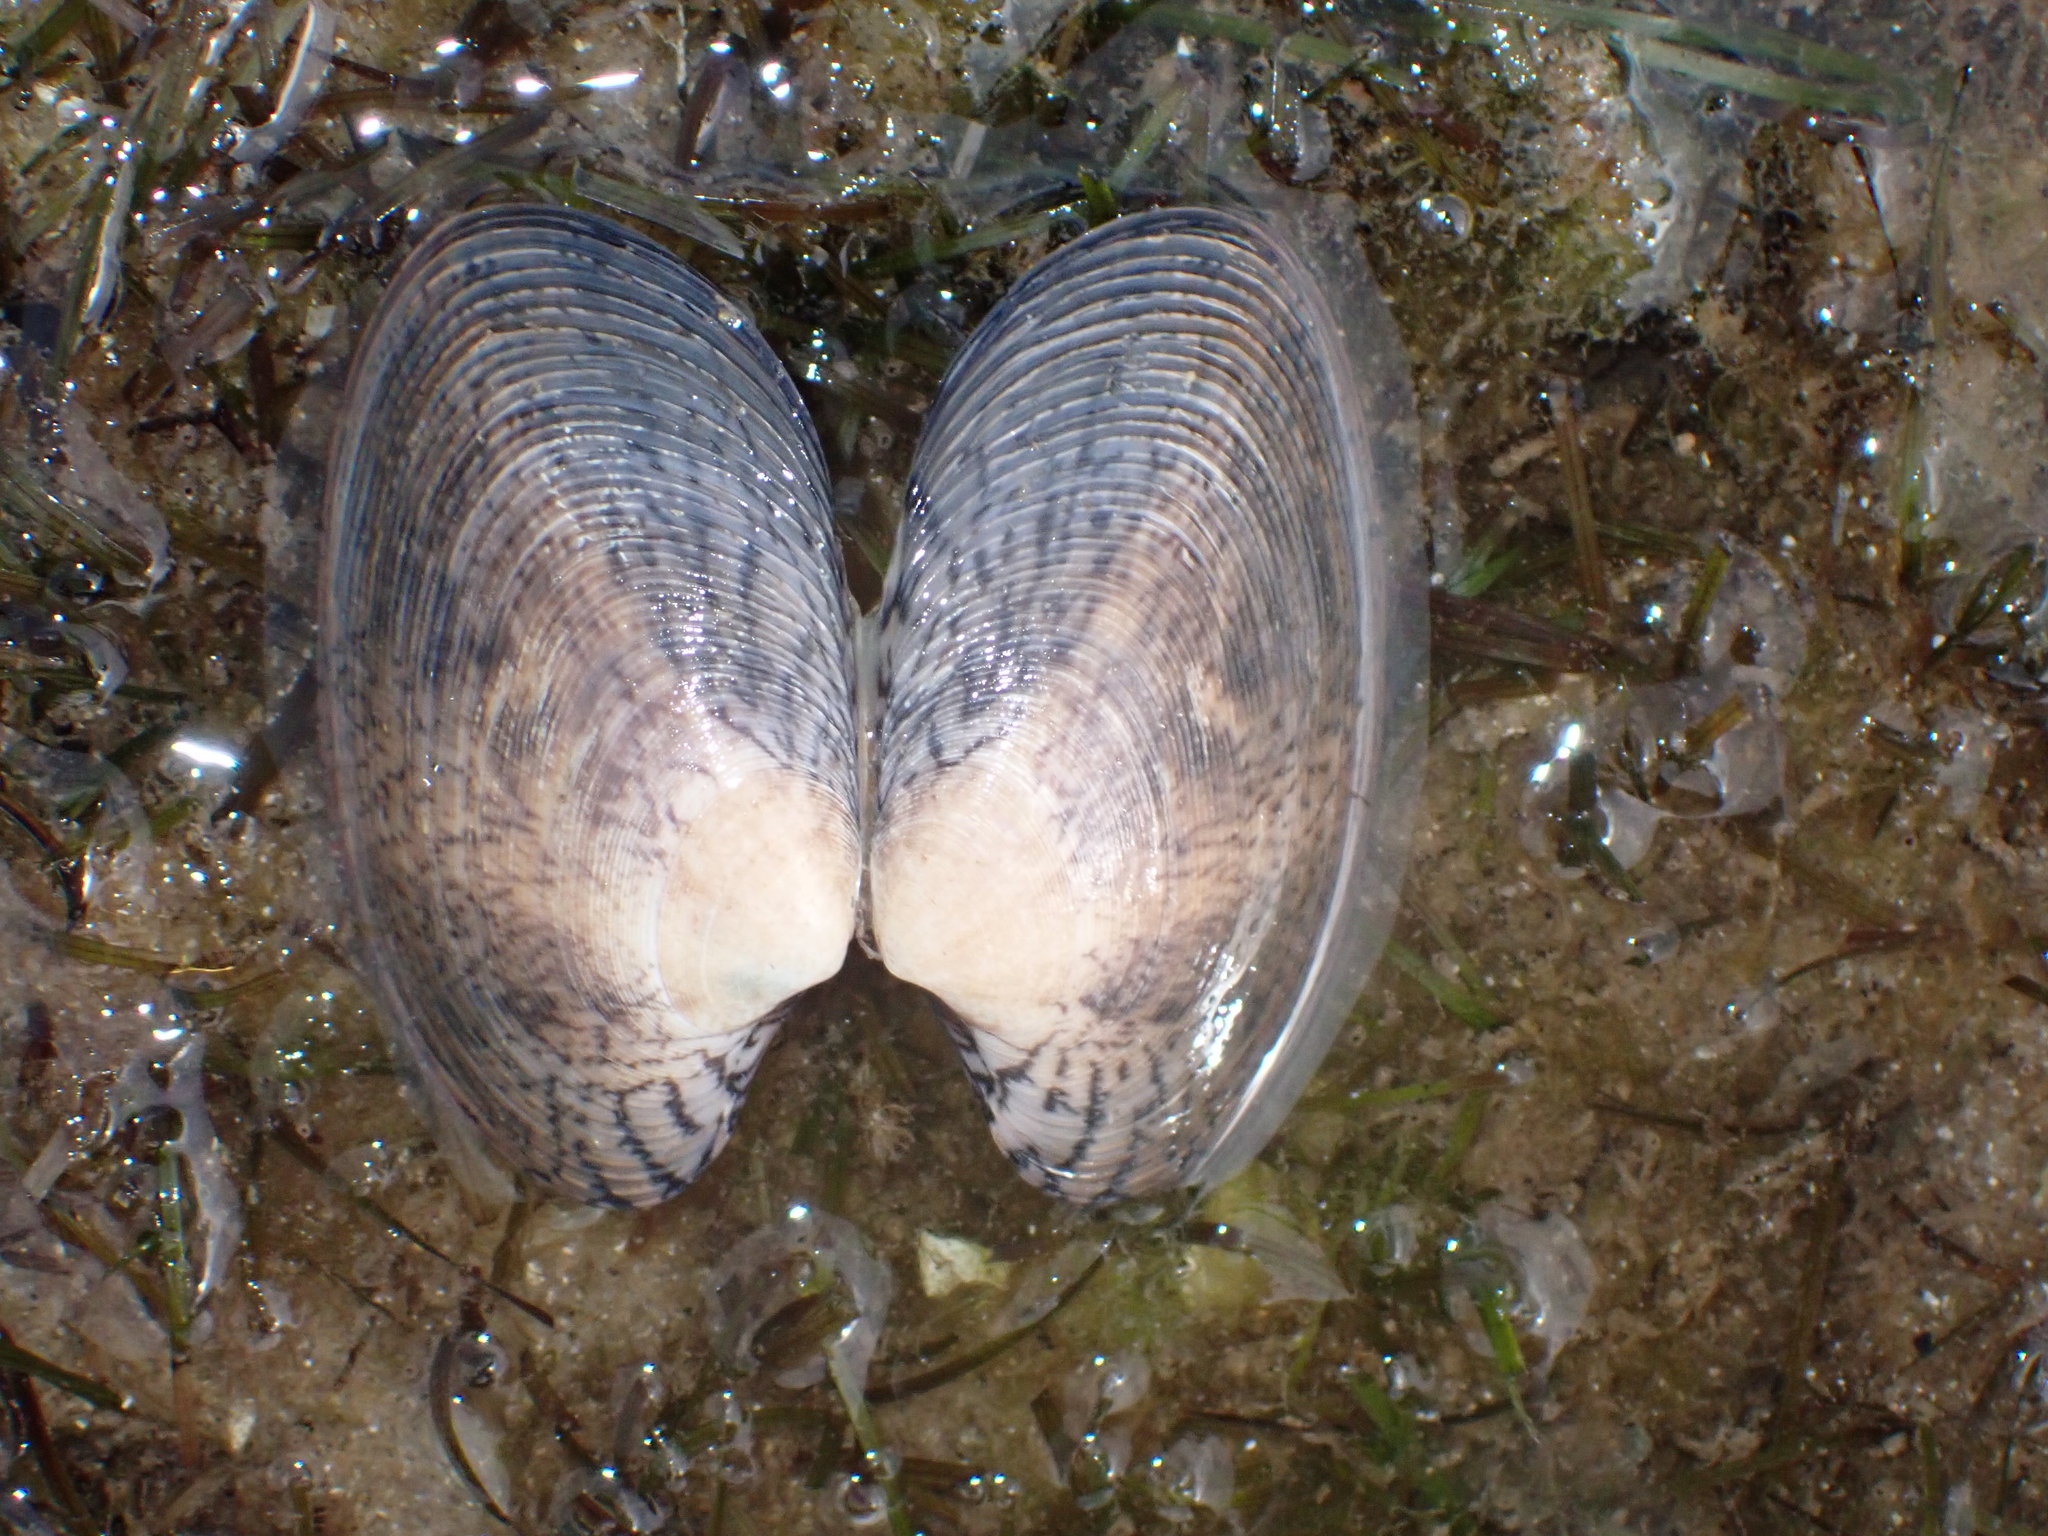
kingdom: Animalia
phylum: Mollusca
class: Bivalvia
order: Venerida
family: Veneridae
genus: Tapes
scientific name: Tapes conspersus
